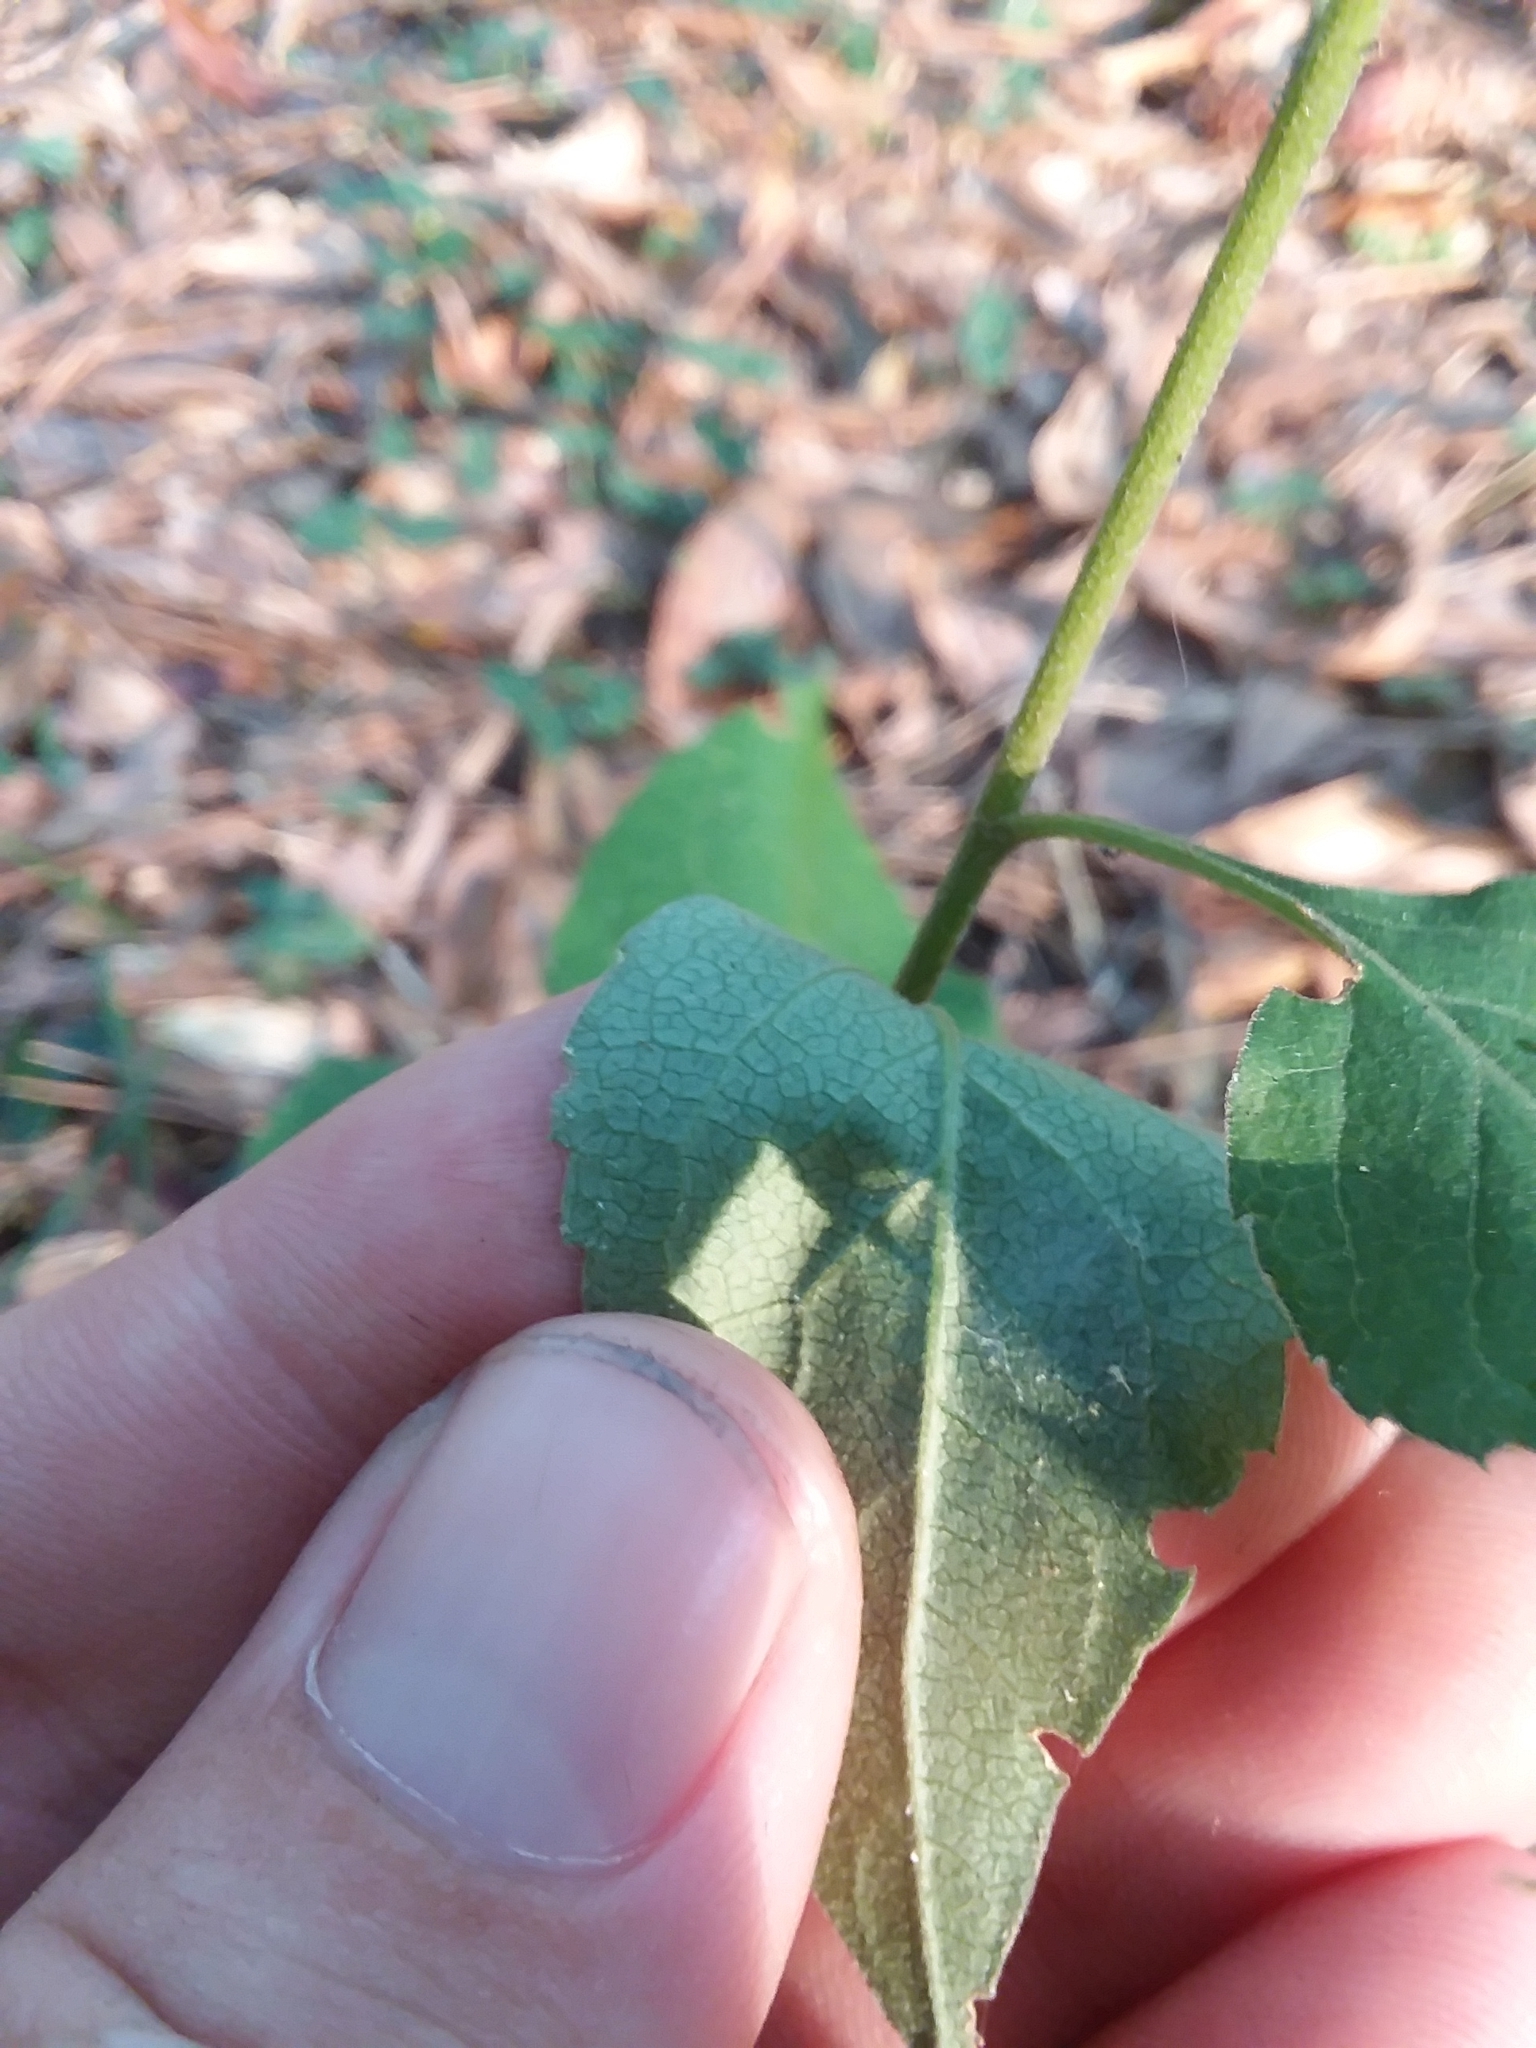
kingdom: Plantae
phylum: Tracheophyta
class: Magnoliopsida
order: Asterales
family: Asteraceae
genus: Solidago
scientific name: Solidago discoidea
